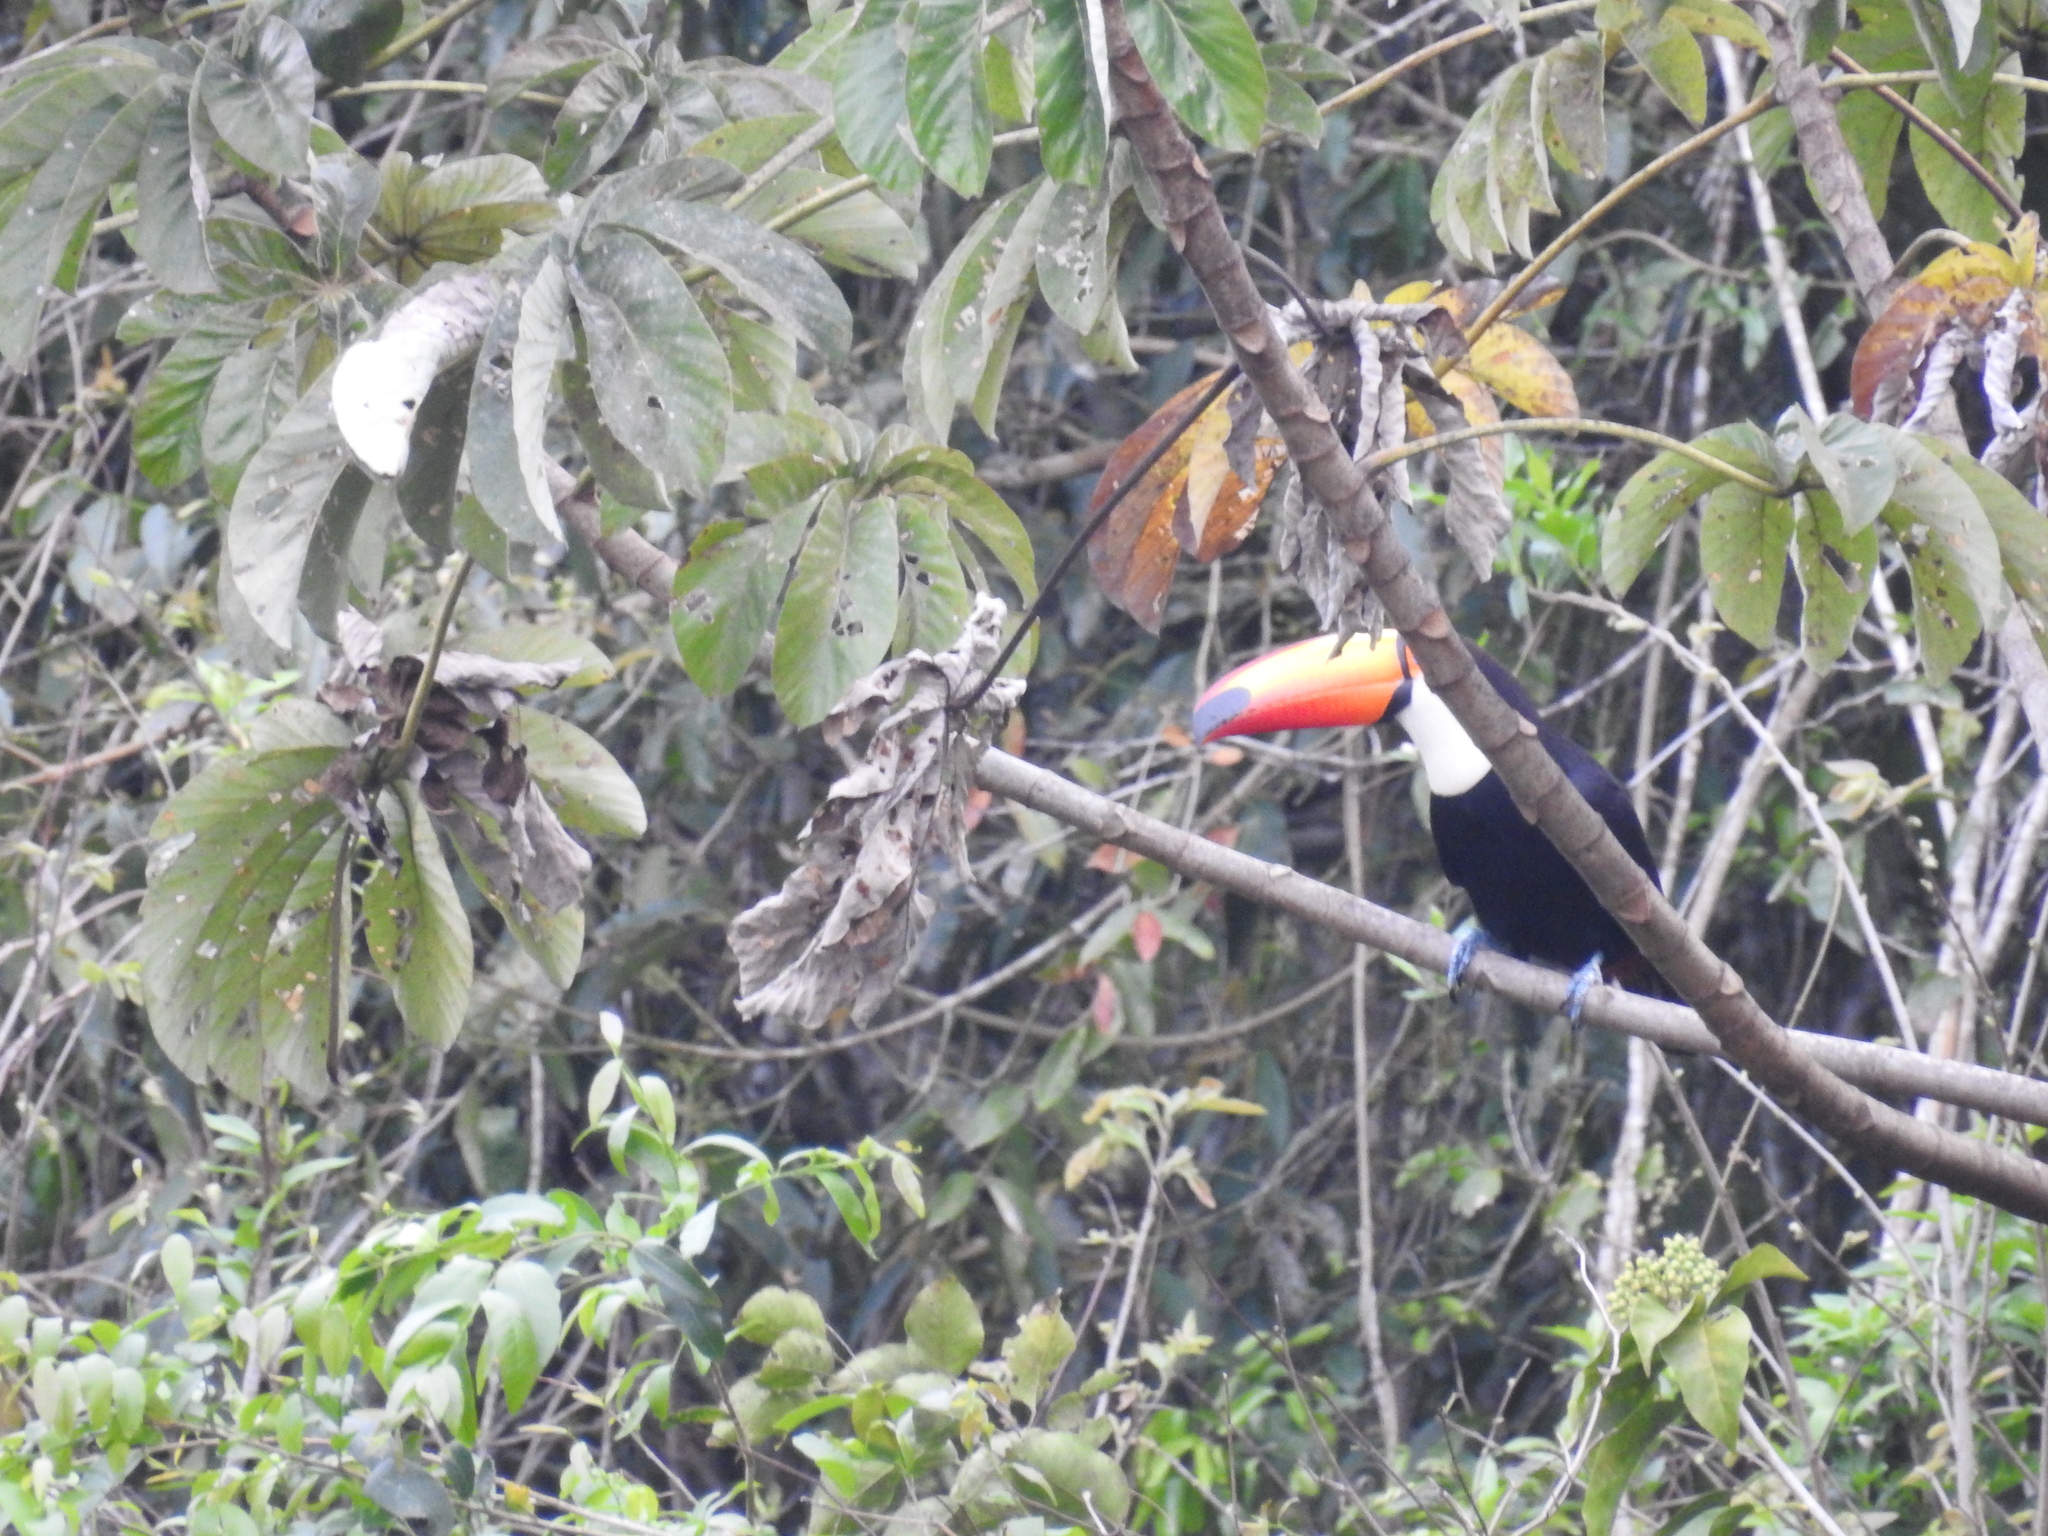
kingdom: Animalia
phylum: Chordata
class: Aves
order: Piciformes
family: Ramphastidae
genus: Ramphastos
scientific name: Ramphastos toco
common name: Toco toucan
